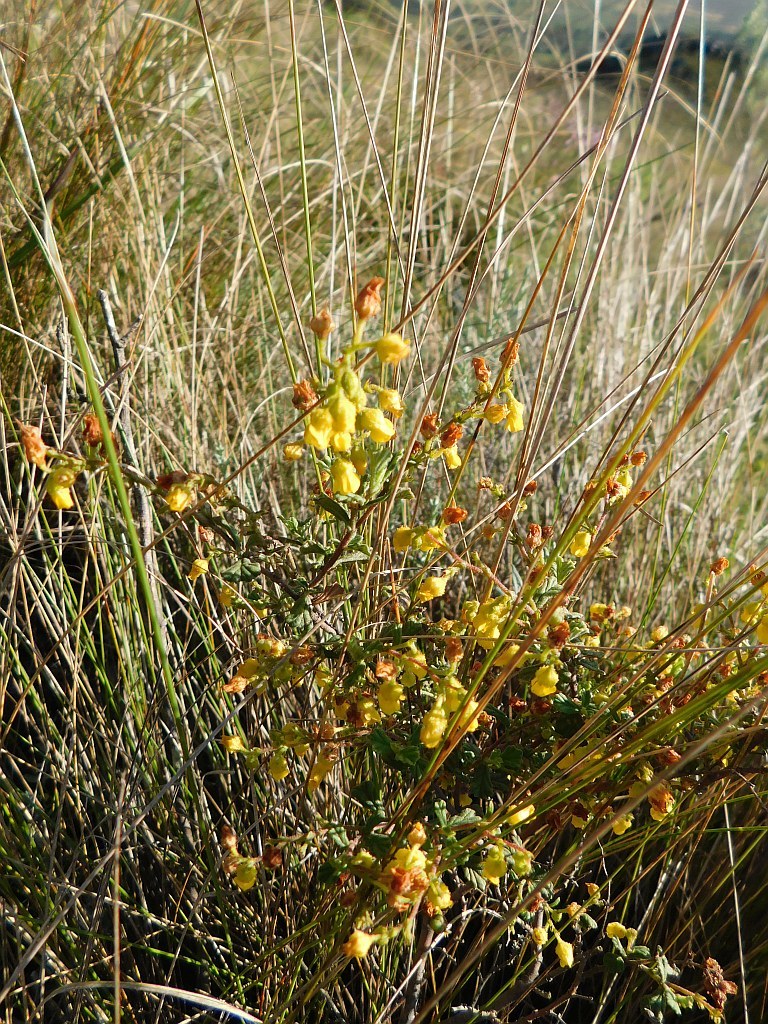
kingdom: Plantae
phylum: Tracheophyta
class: Magnoliopsida
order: Malvales
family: Malvaceae
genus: Hermannia
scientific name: Hermannia alnifolia
